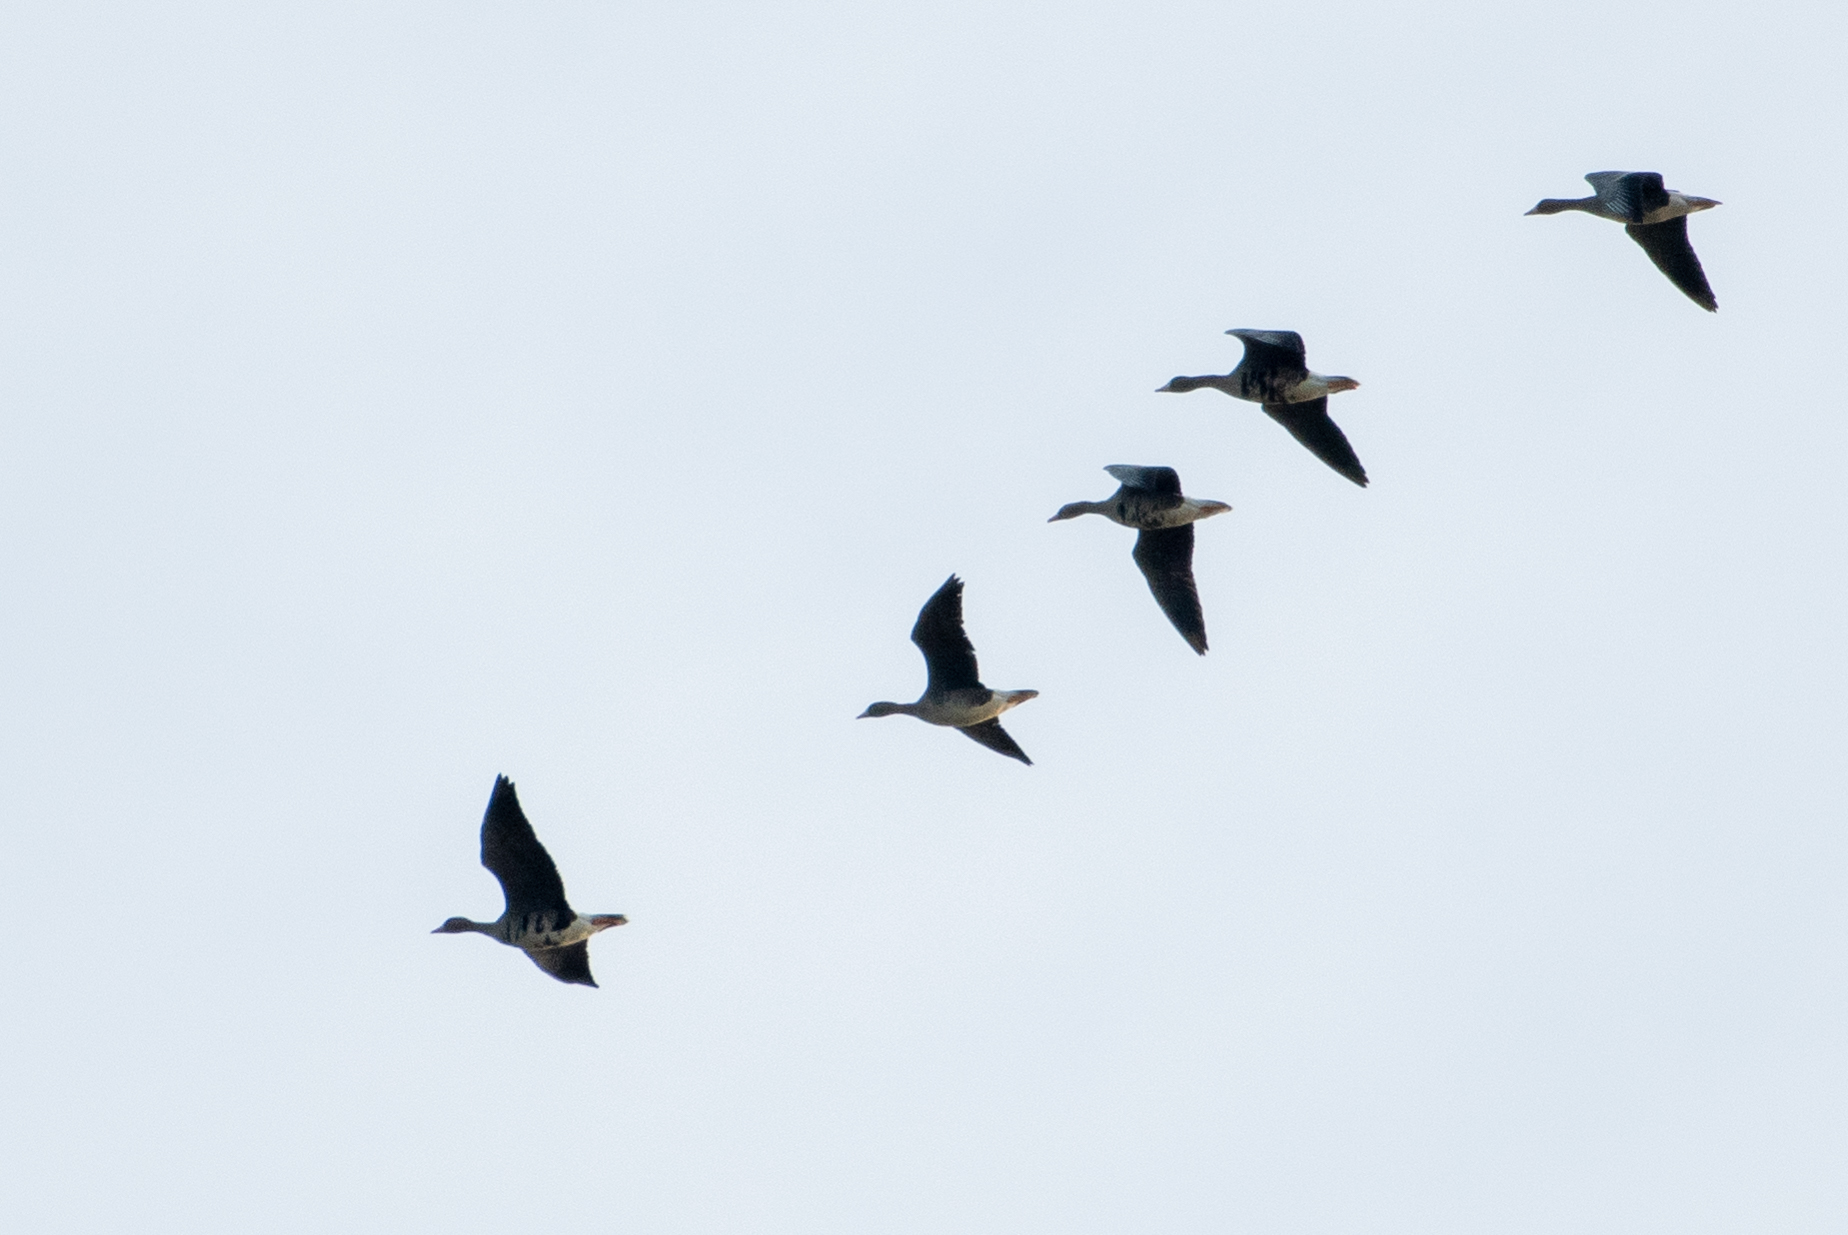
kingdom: Animalia
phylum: Chordata
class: Aves
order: Anseriformes
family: Anatidae
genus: Anser
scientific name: Anser albifrons
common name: Greater white-fronted goose
